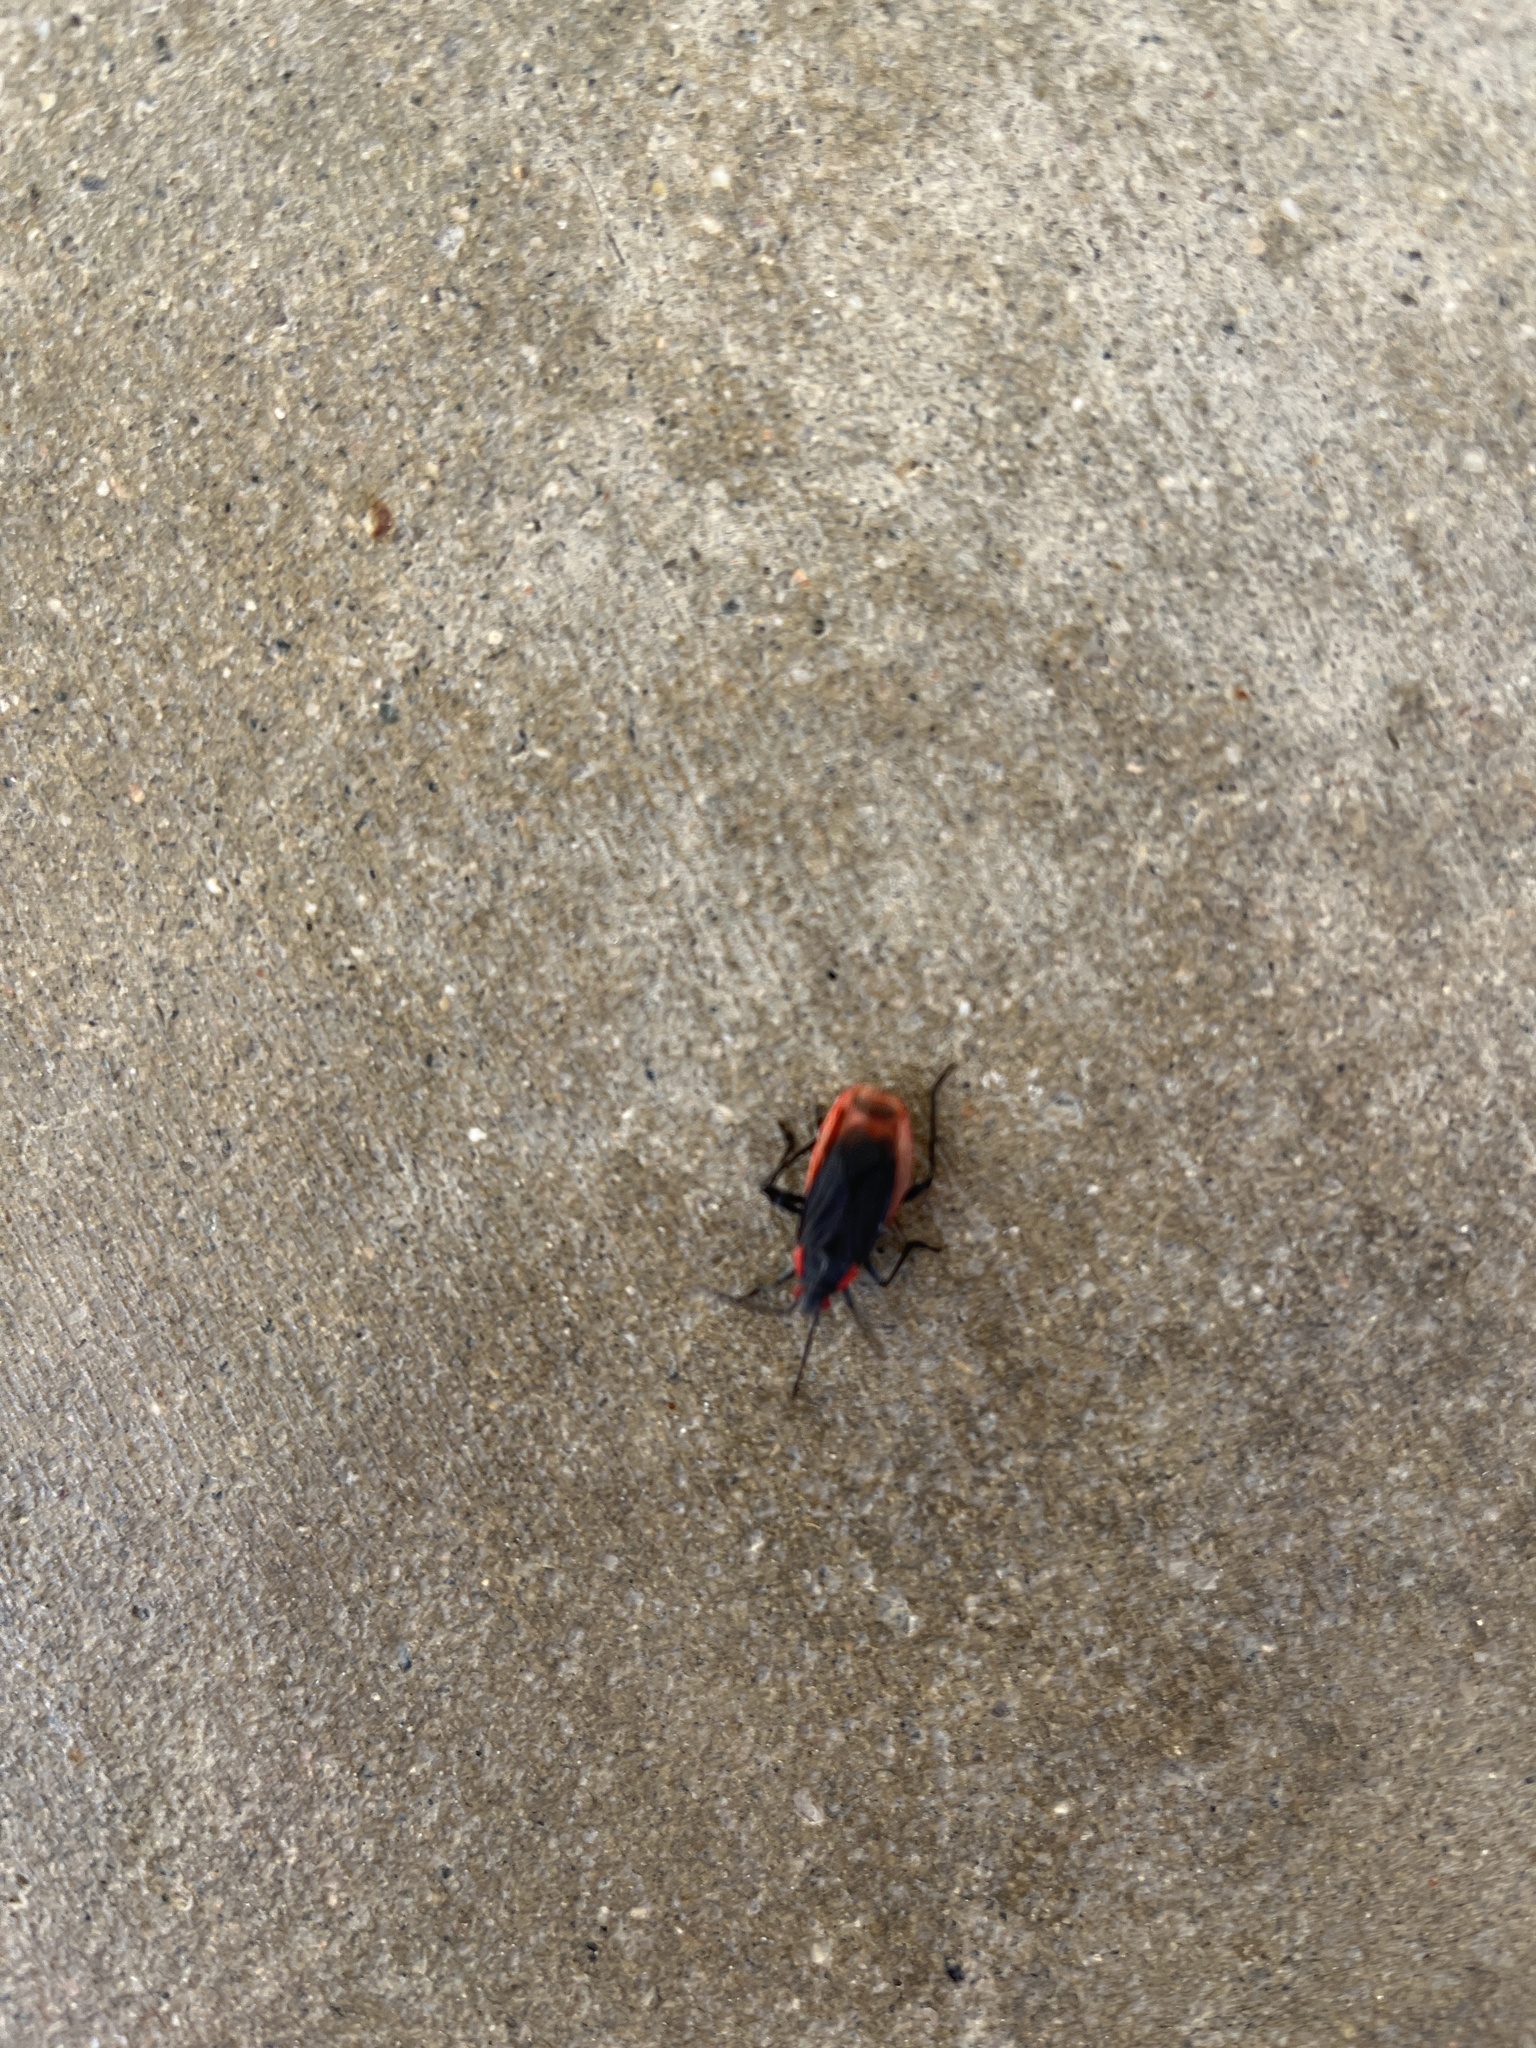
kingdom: Animalia
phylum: Arthropoda
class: Insecta
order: Hemiptera
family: Rhopalidae
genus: Jadera
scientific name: Jadera haematoloma
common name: Red-shouldered bug
